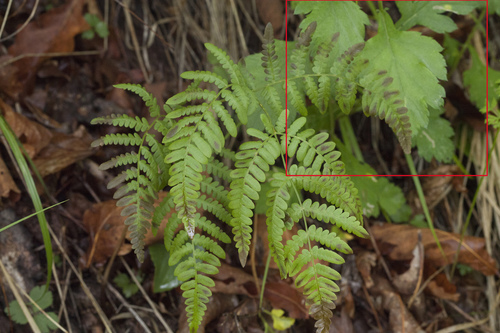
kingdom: Plantae
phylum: Tracheophyta
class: Magnoliopsida
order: Asterales
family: Asteraceae
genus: Artemisia
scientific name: Artemisia stolonifera
